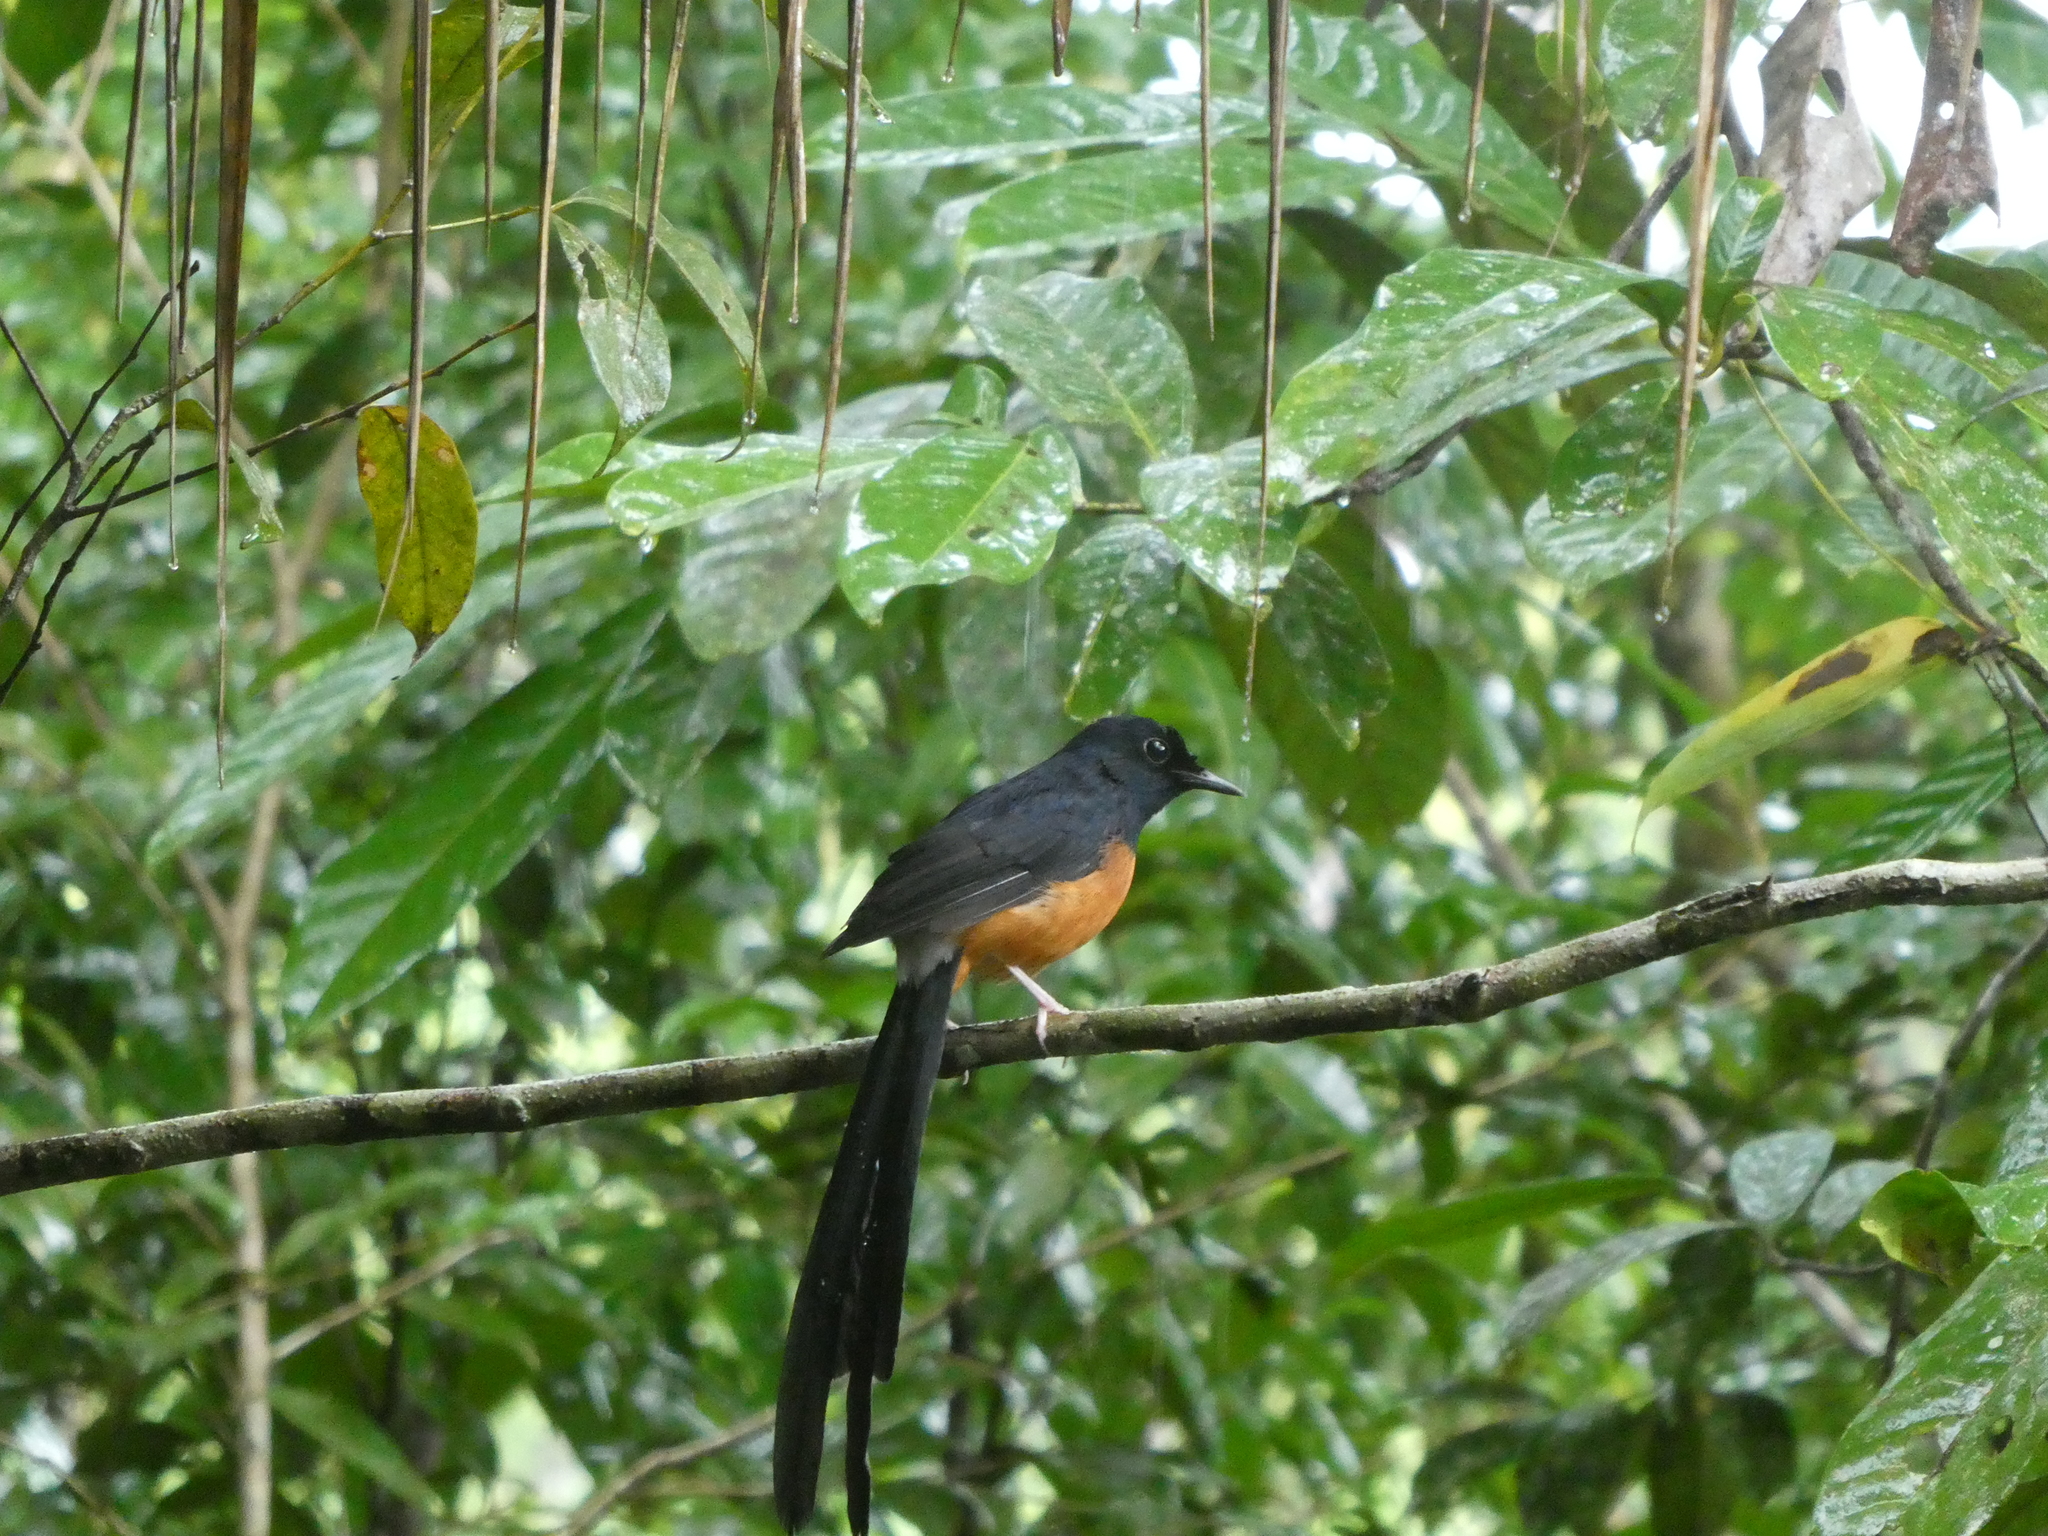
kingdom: Animalia
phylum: Chordata
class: Aves
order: Passeriformes
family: Muscicapidae
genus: Copsychus
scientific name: Copsychus malabaricus
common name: White-rumped shama
